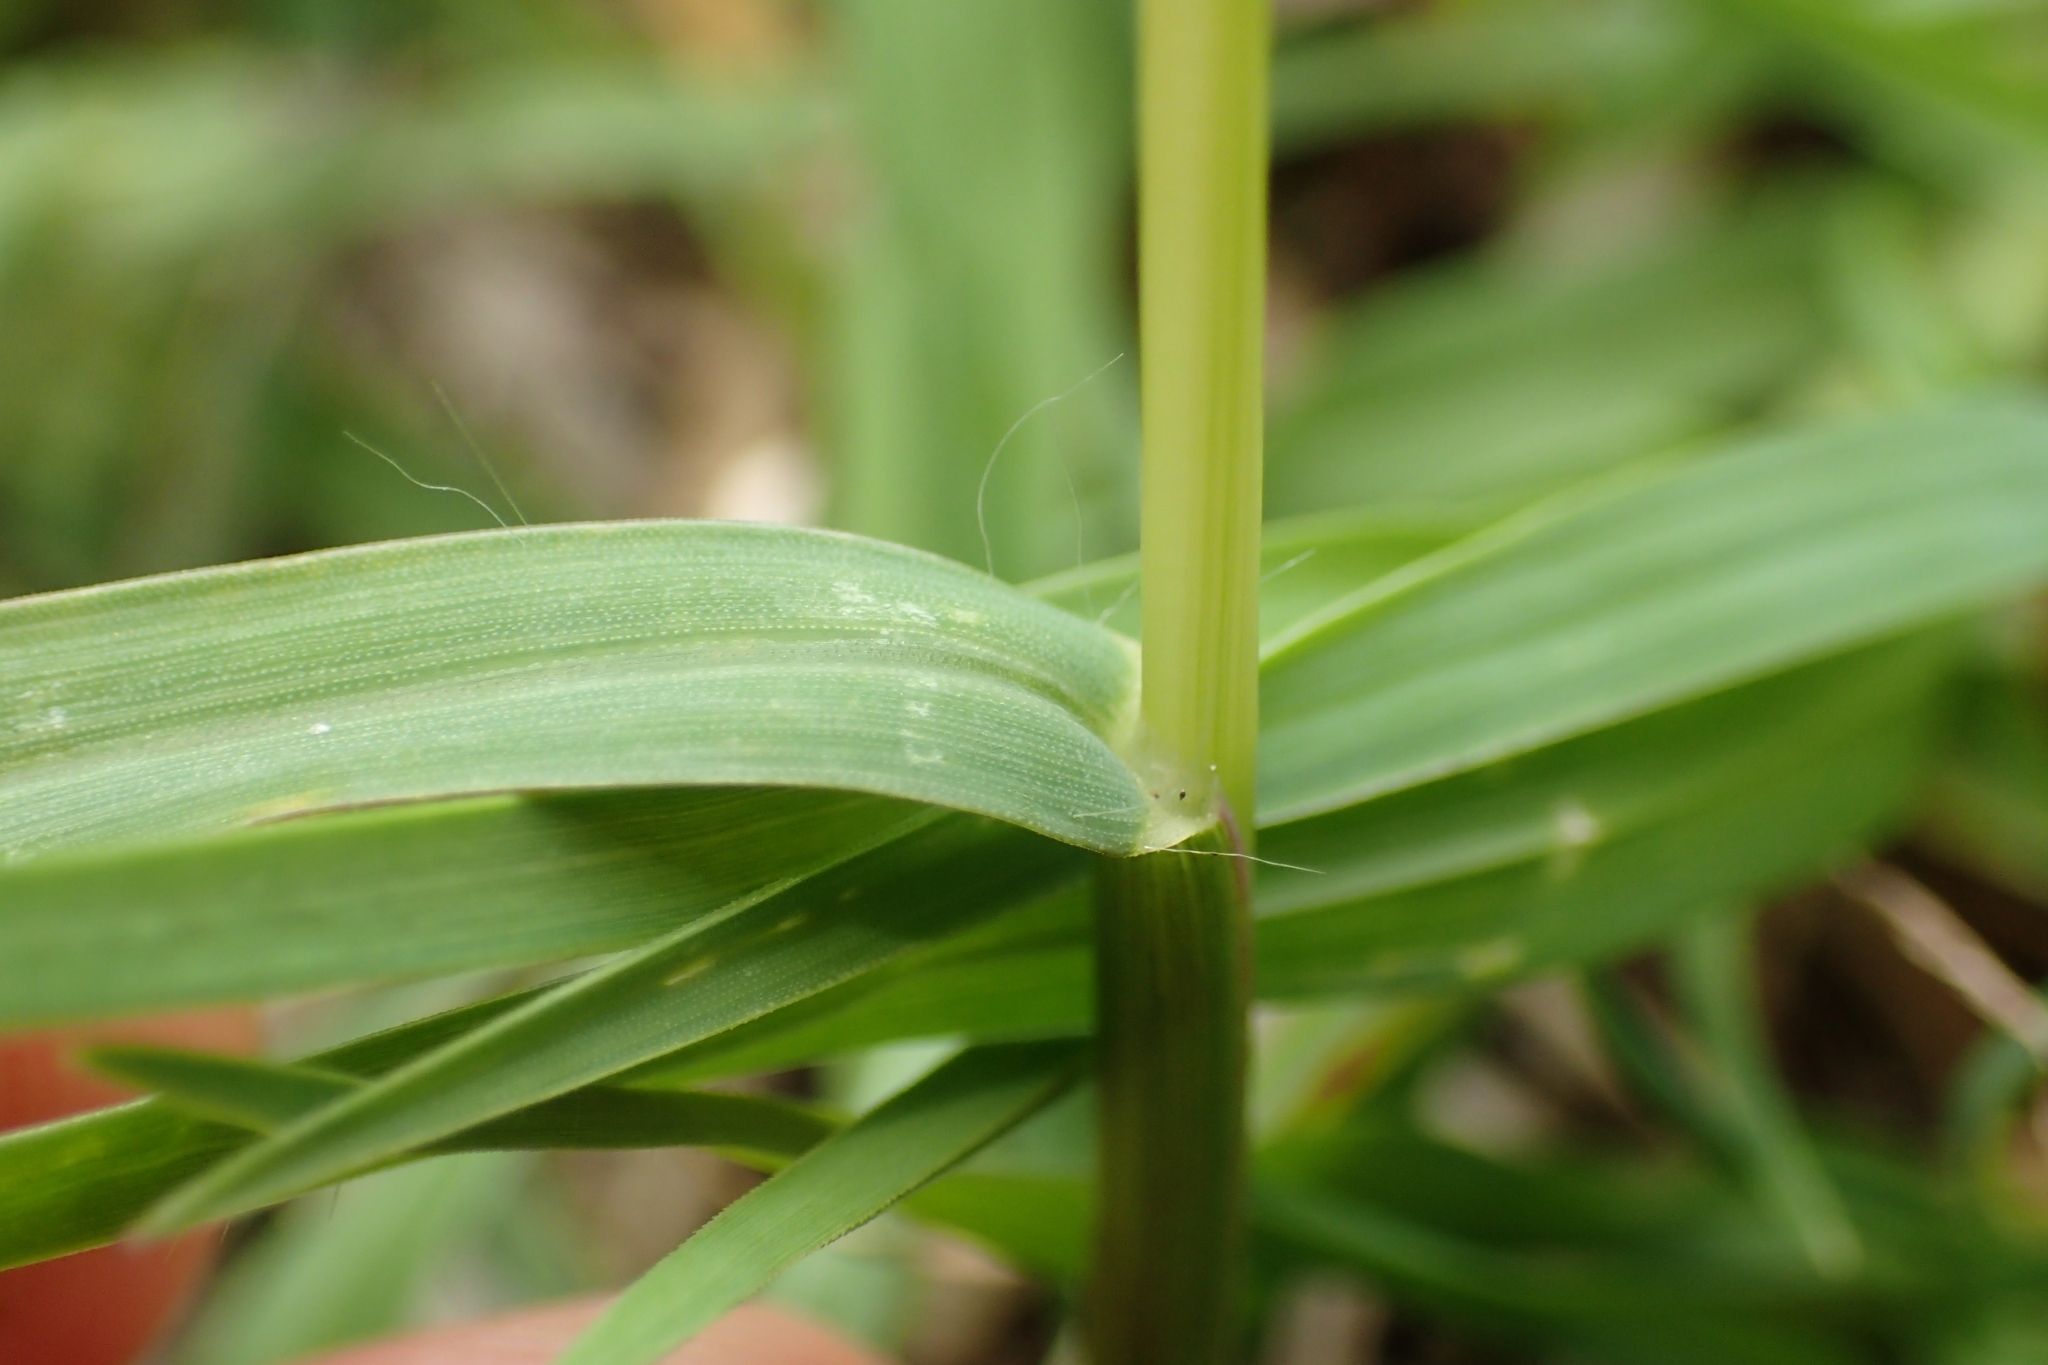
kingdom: Plantae
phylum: Tracheophyta
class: Liliopsida
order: Poales
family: Poaceae
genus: Setaria
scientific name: Setaria parviflora
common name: Knotroot bristle-grass
